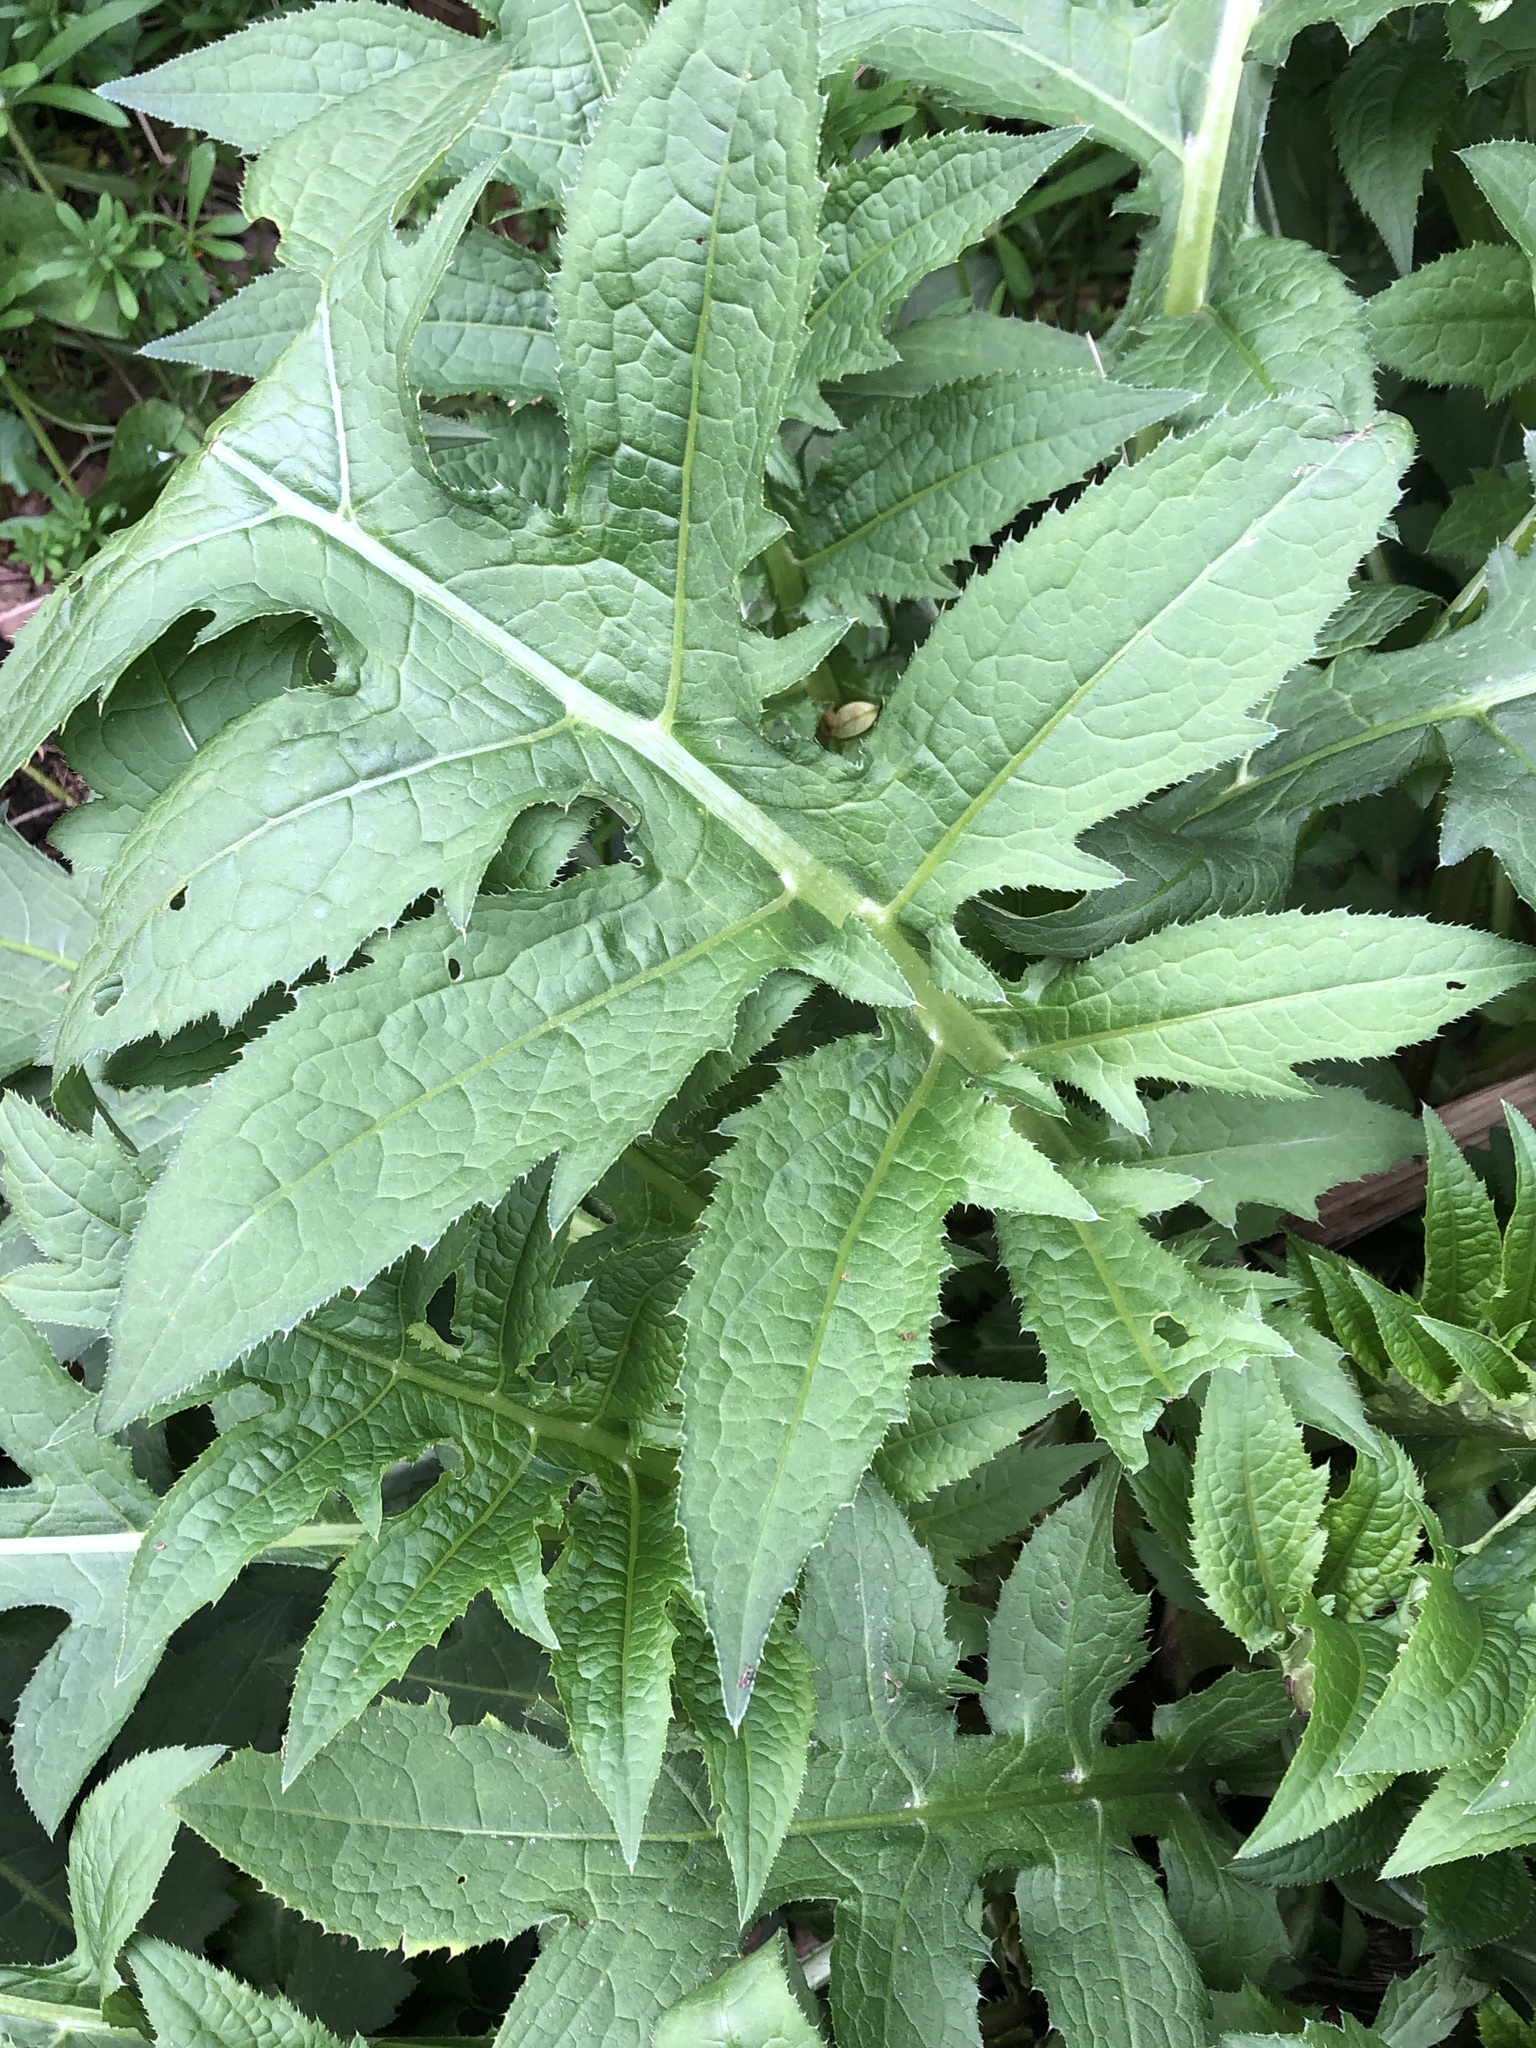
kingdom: Plantae
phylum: Tracheophyta
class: Magnoliopsida
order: Asterales
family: Asteraceae
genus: Cirsium
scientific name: Cirsium oleraceum
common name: Cabbage thistle
